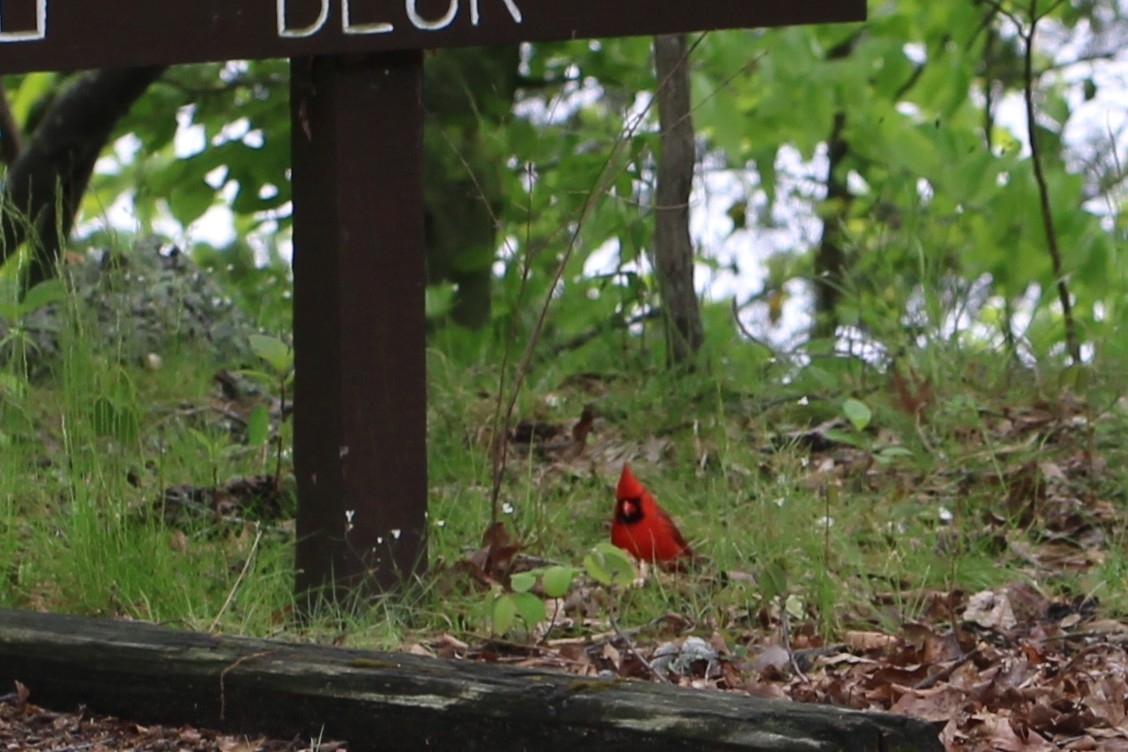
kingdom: Animalia
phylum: Chordata
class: Aves
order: Passeriformes
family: Cardinalidae
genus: Cardinalis
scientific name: Cardinalis cardinalis
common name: Northern cardinal
